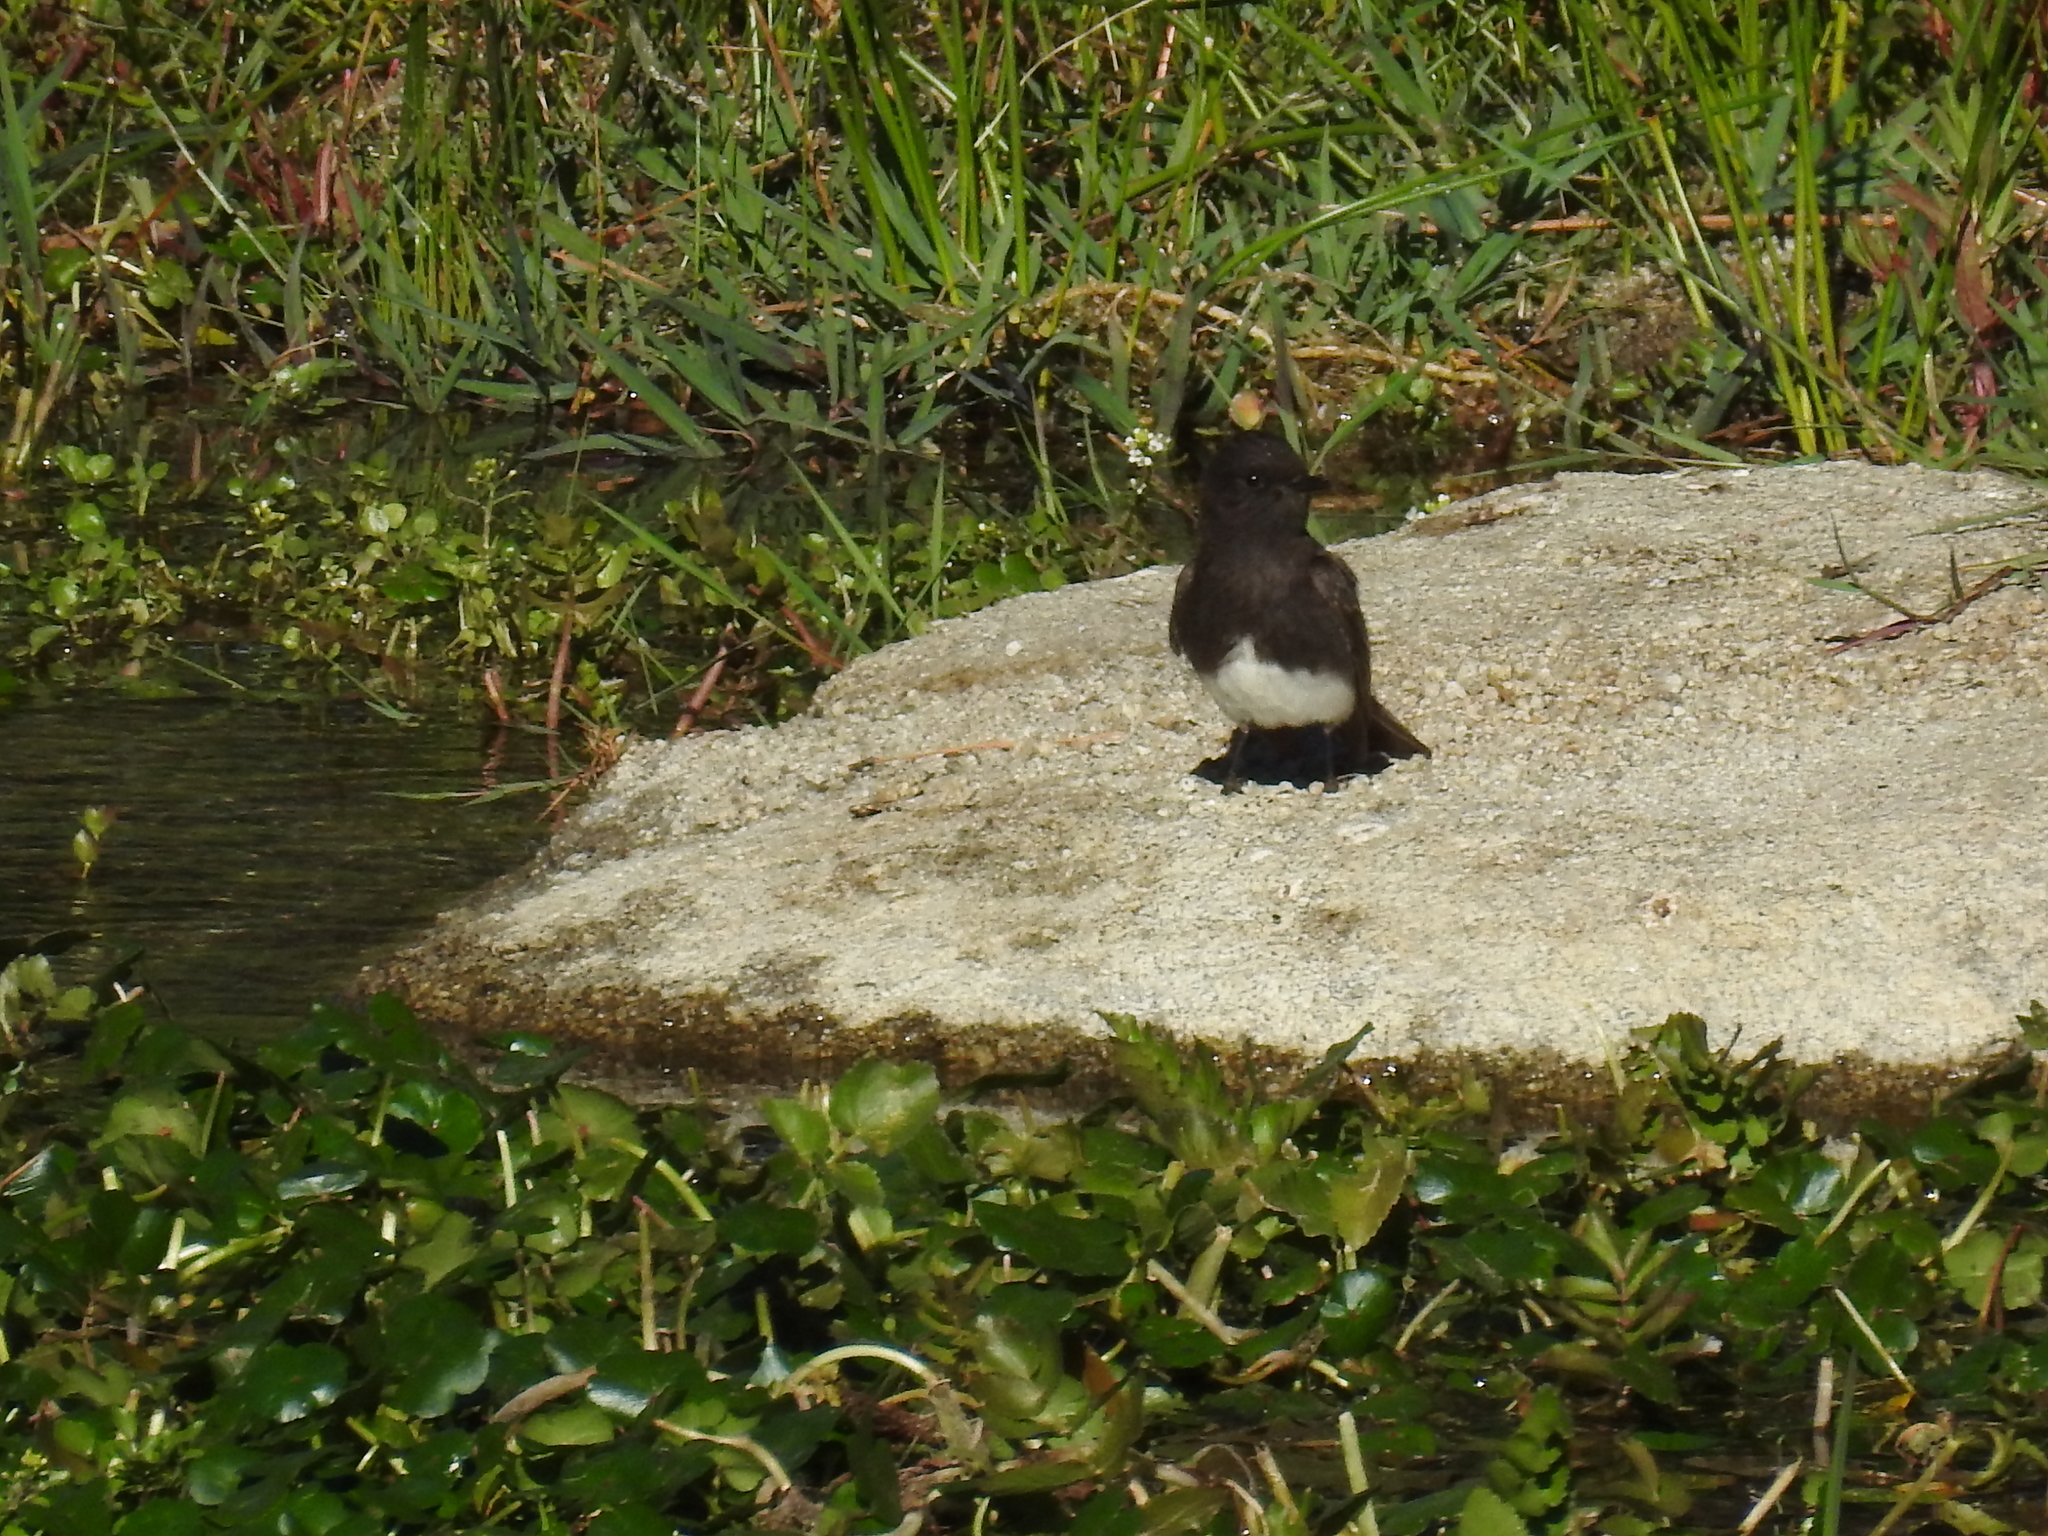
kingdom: Animalia
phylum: Chordata
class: Aves
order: Passeriformes
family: Tyrannidae
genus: Sayornis
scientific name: Sayornis nigricans
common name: Black phoebe
